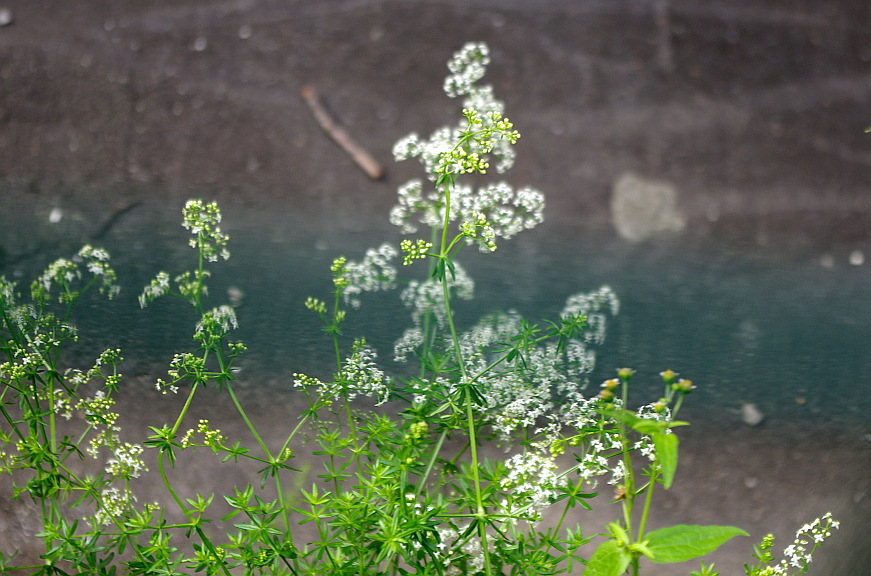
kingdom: Plantae
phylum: Tracheophyta
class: Magnoliopsida
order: Gentianales
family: Rubiaceae
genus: Galium
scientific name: Galium mollugo
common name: Hedge bedstraw
